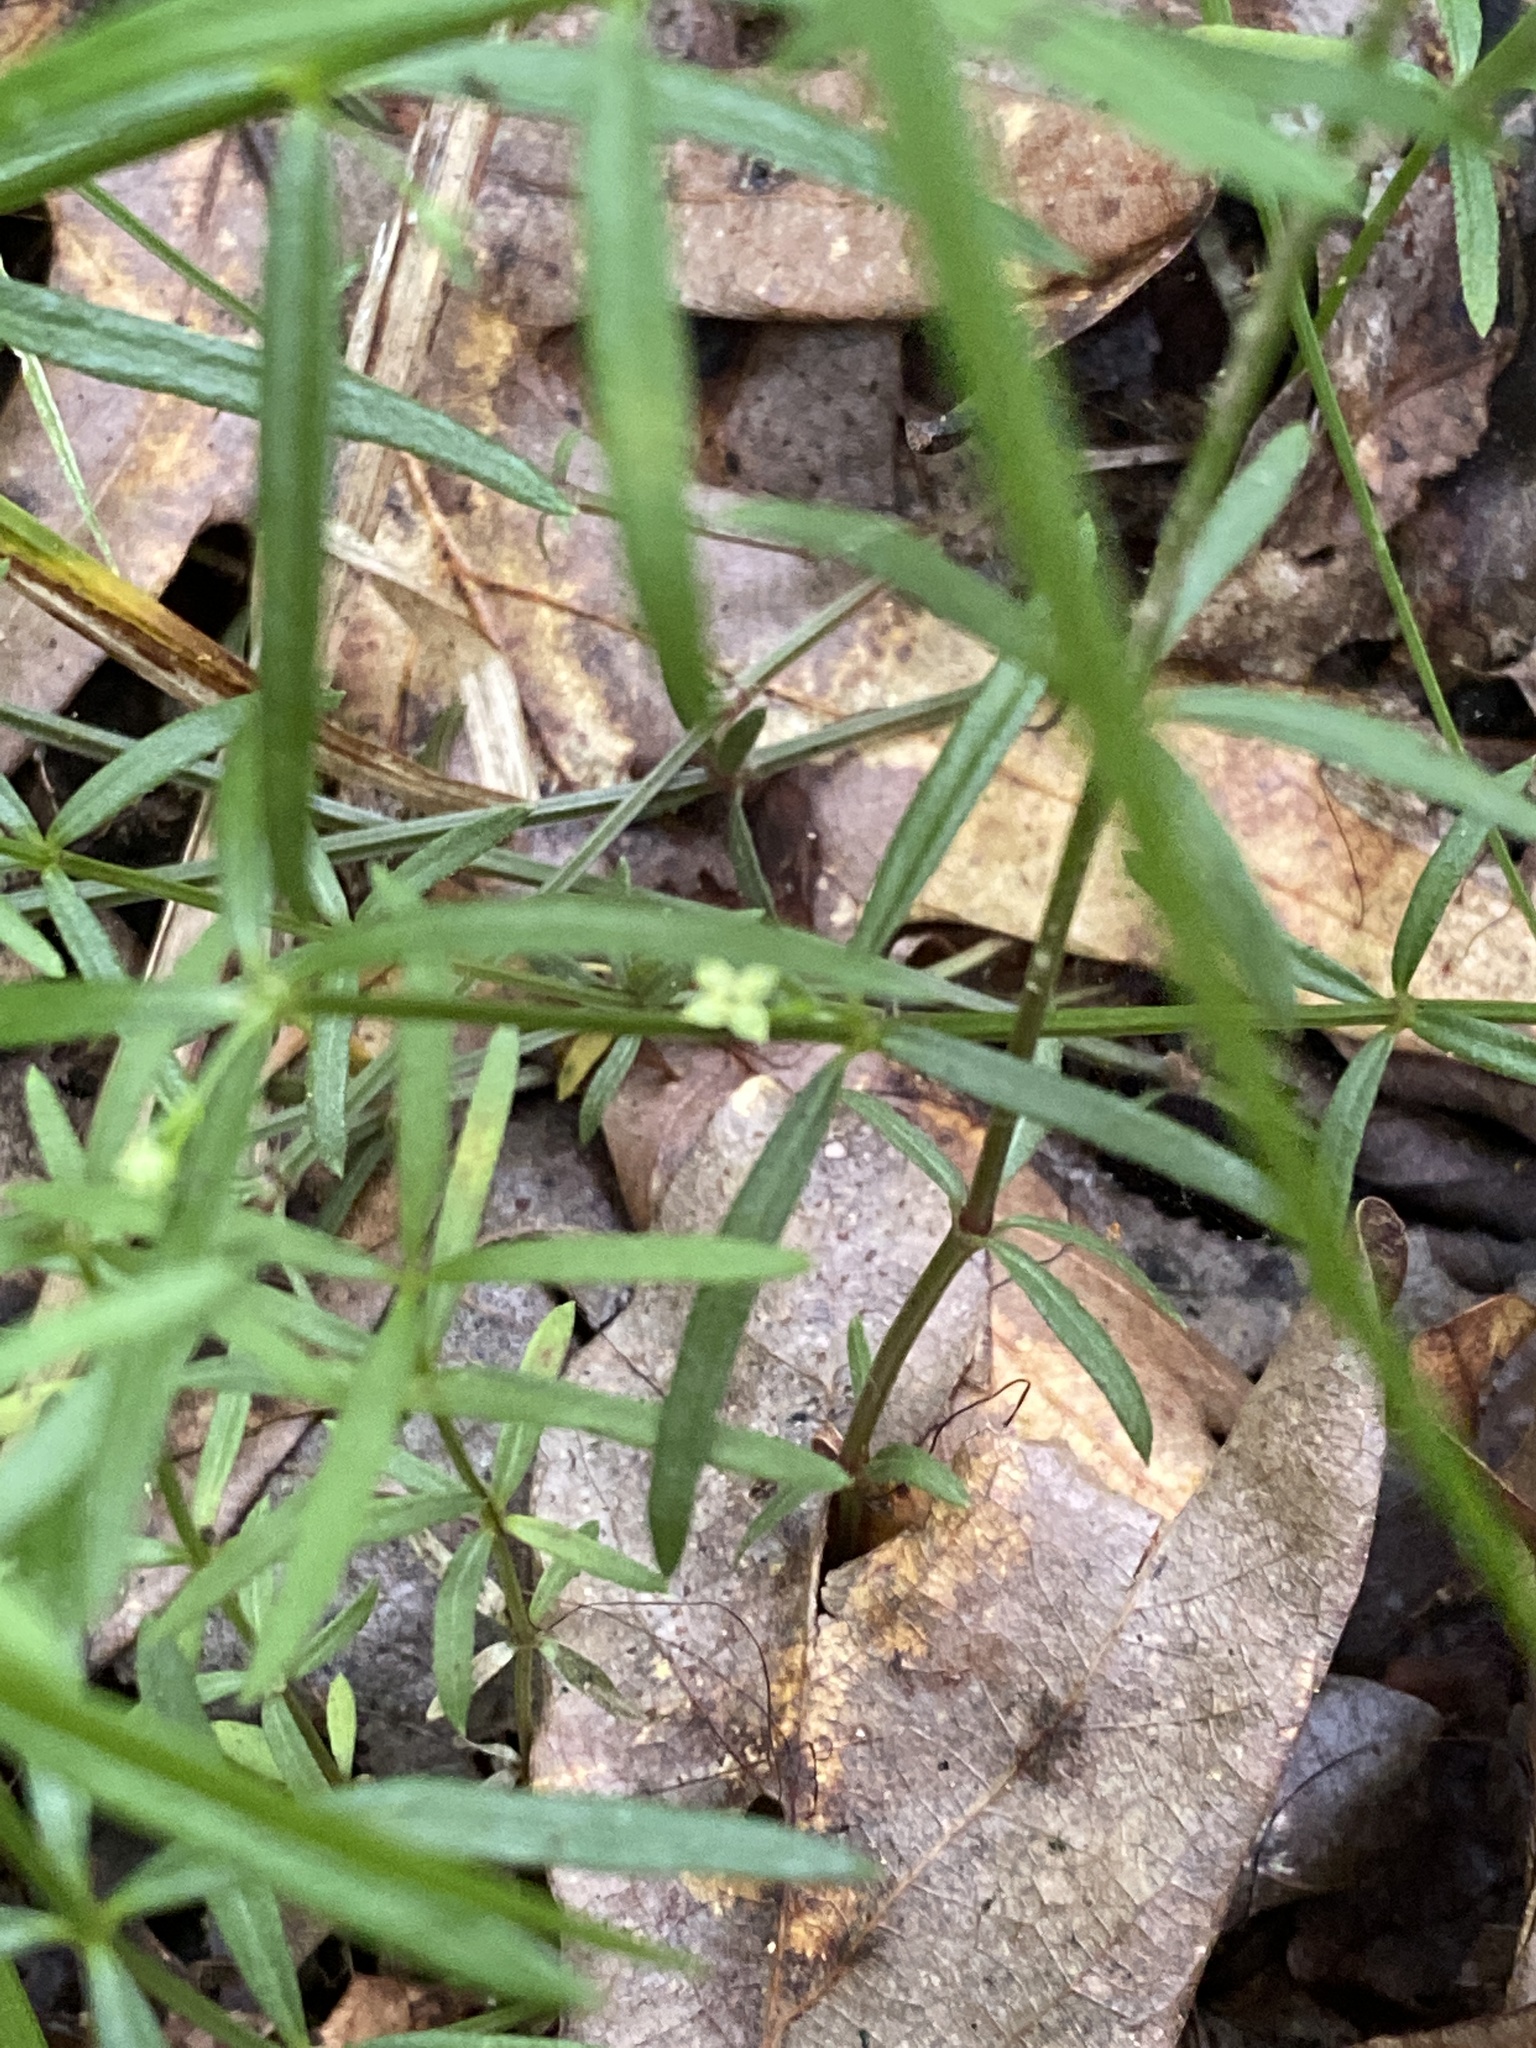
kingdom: Plantae
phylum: Tracheophyta
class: Magnoliopsida
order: Gentianales
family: Rubiaceae
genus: Galium
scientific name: Galium uniflorum
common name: One-flower bedstraw
